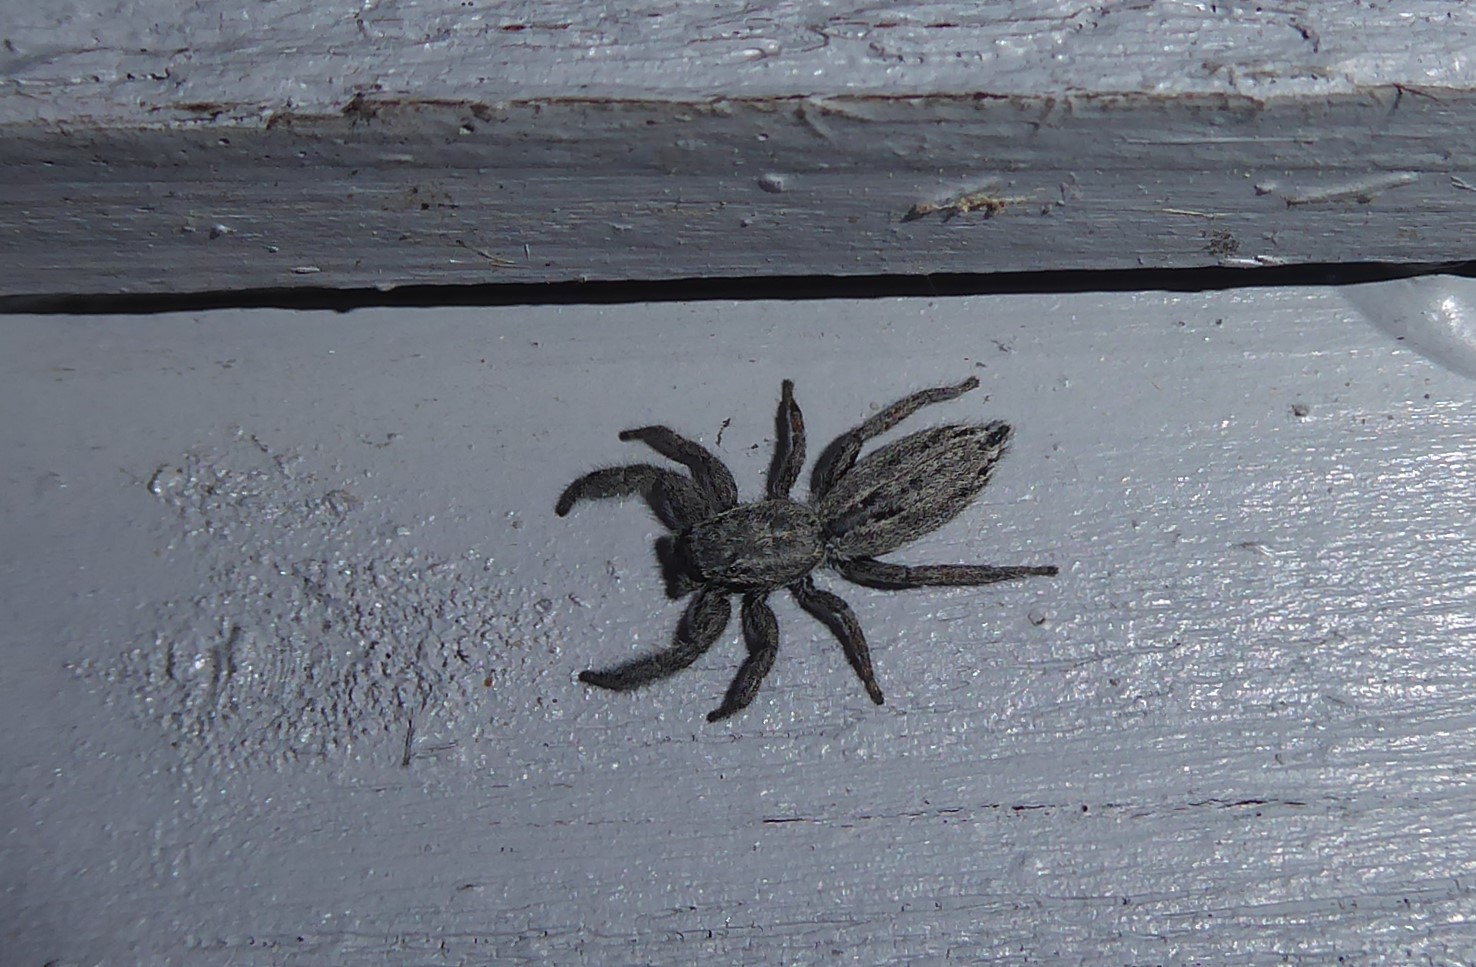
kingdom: Animalia
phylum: Arthropoda
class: Arachnida
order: Araneae
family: Salticidae
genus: Holoplatys
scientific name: Holoplatys apressus
